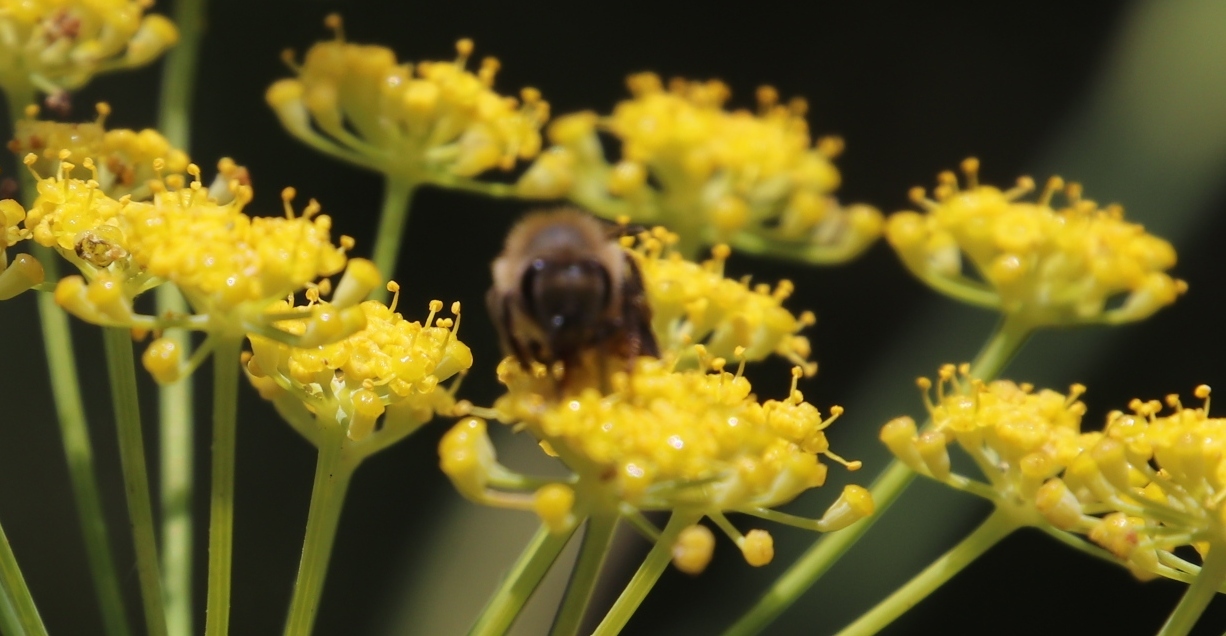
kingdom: Animalia
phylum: Arthropoda
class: Insecta
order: Lepidoptera
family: Noctuidae
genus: Compsotata
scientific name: Compsotata elegantissima
